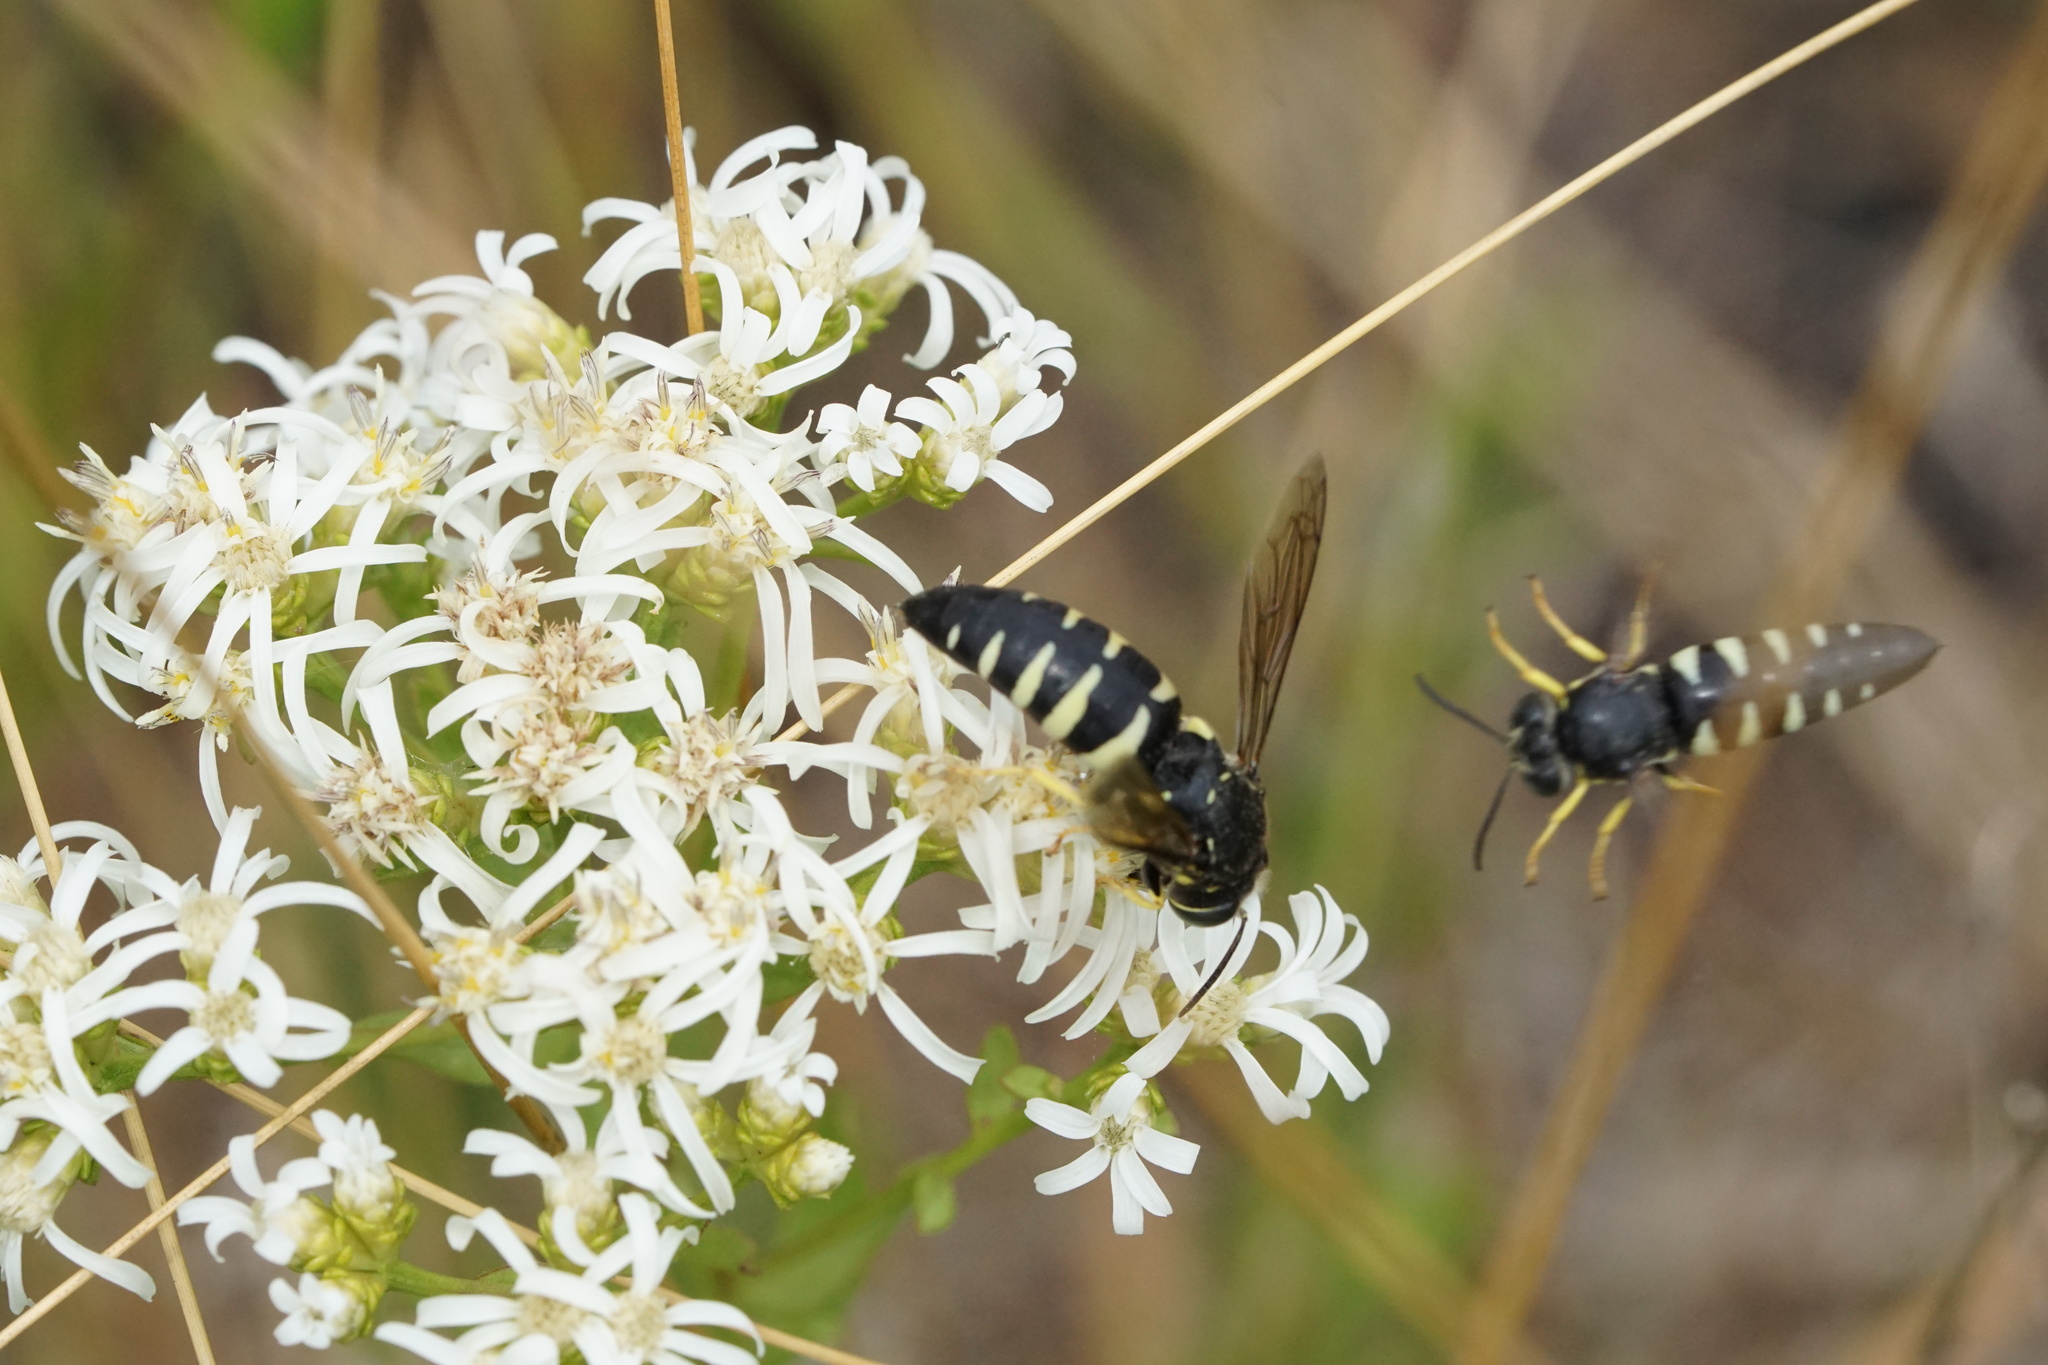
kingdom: Animalia
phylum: Arthropoda
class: Insecta
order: Hymenoptera
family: Crabronidae
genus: Bicyrtes
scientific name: Bicyrtes quadrifasciatus
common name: Four-banded stink bug hunter wasp
